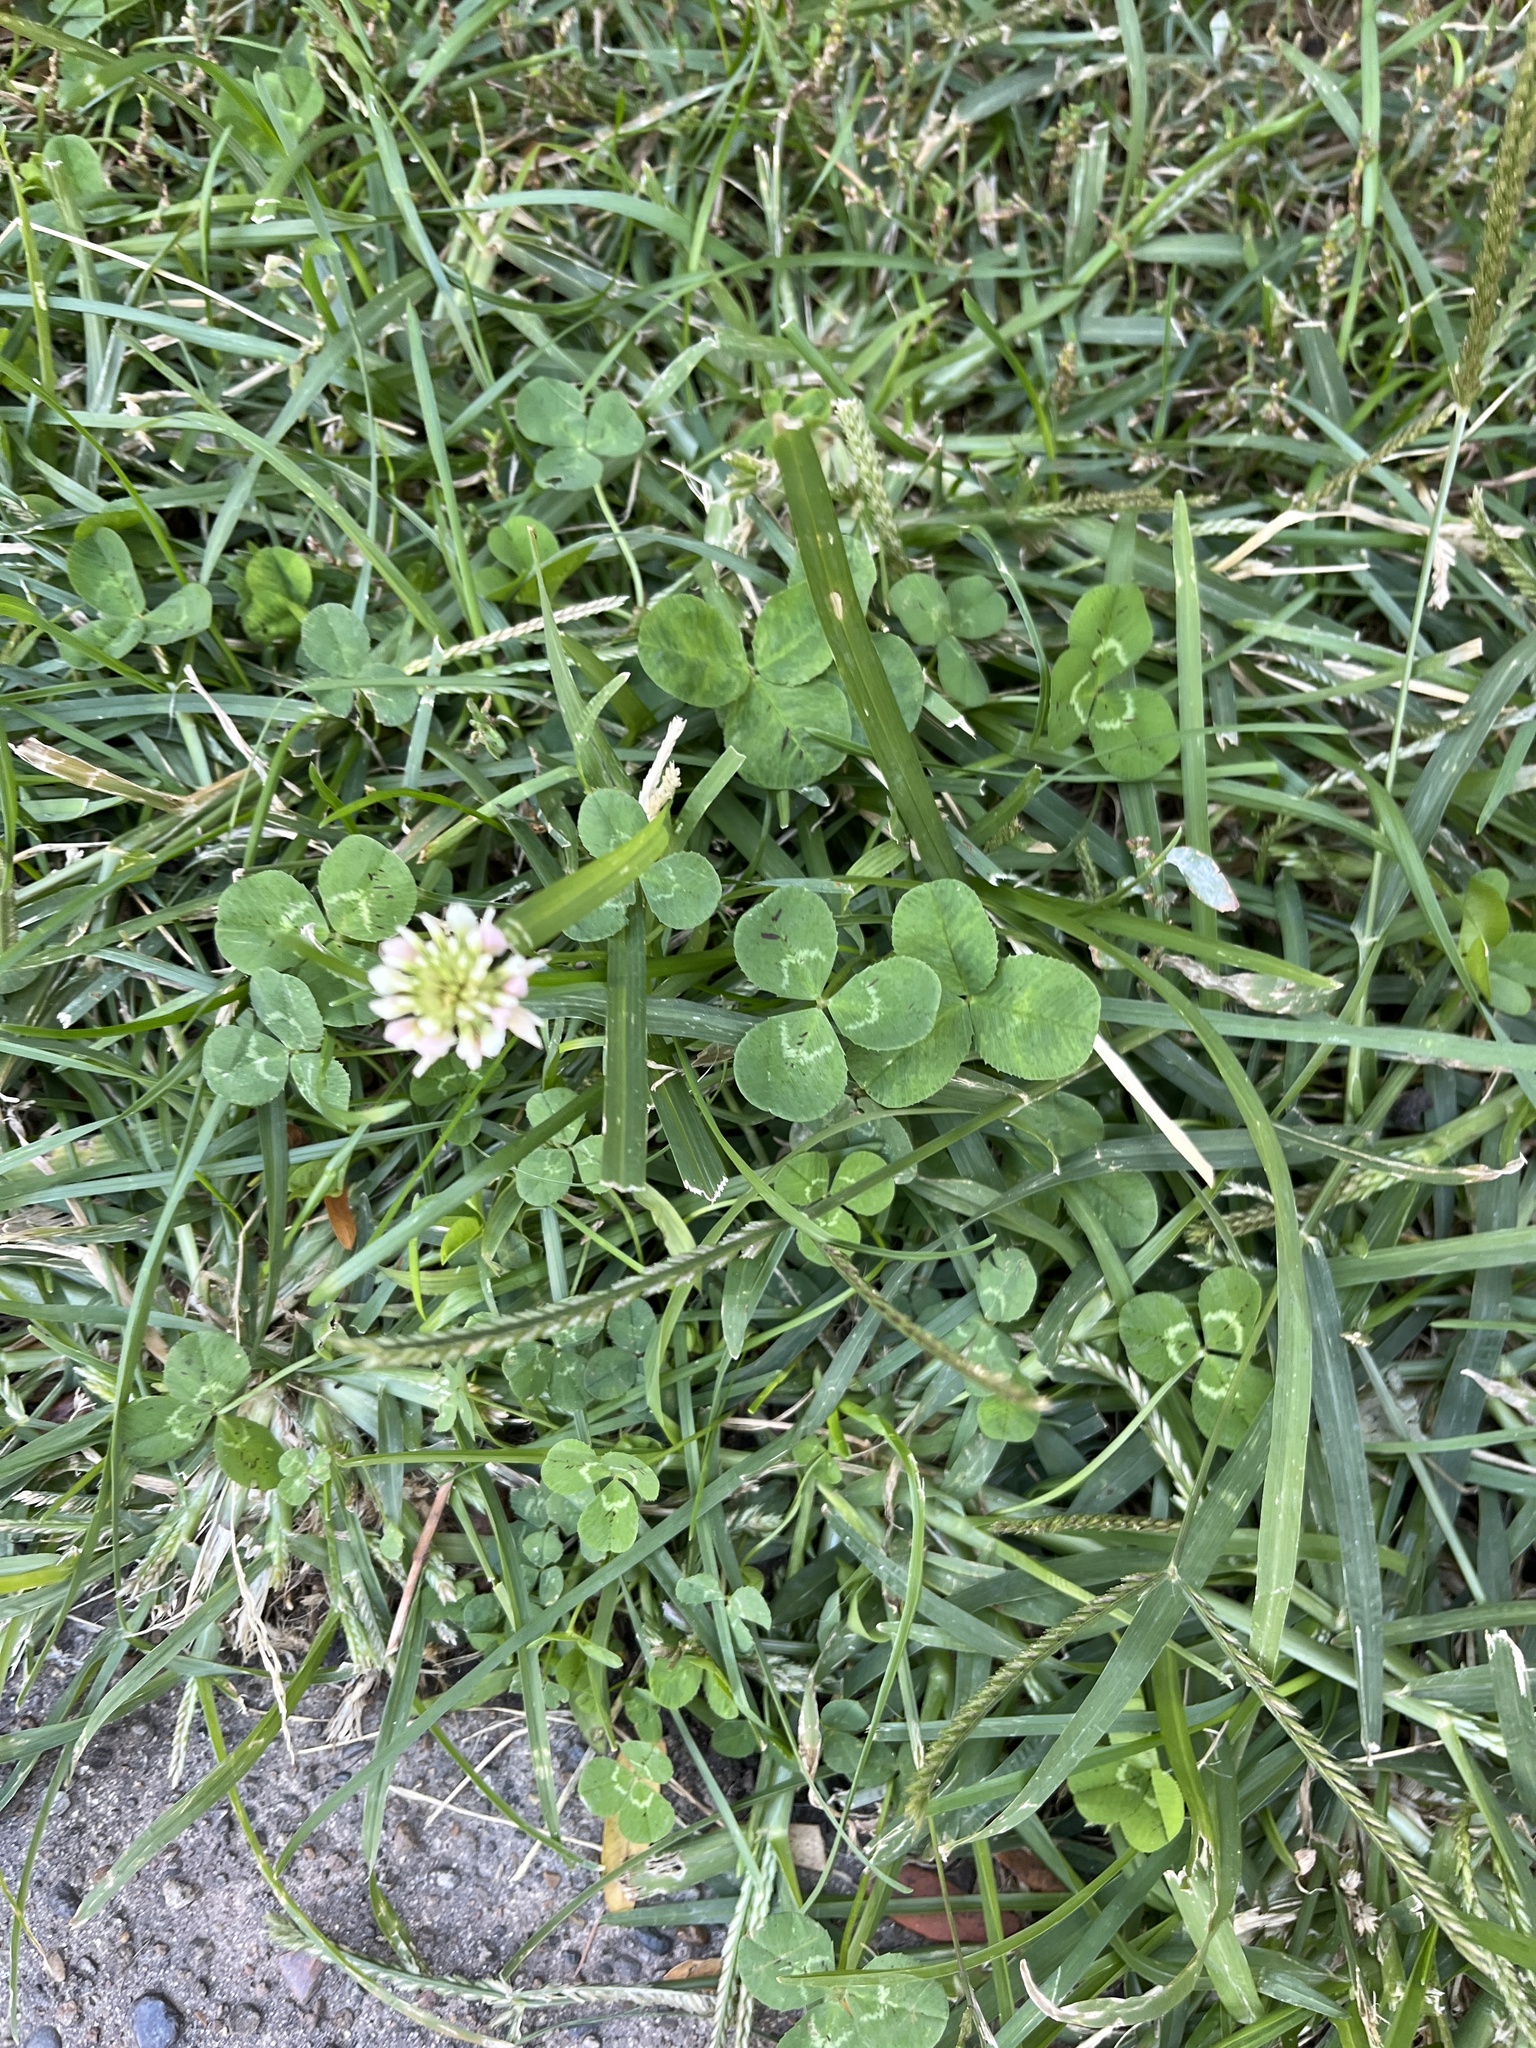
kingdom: Plantae
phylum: Tracheophyta
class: Magnoliopsida
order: Fabales
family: Fabaceae
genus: Trifolium
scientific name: Trifolium repens
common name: White clover
